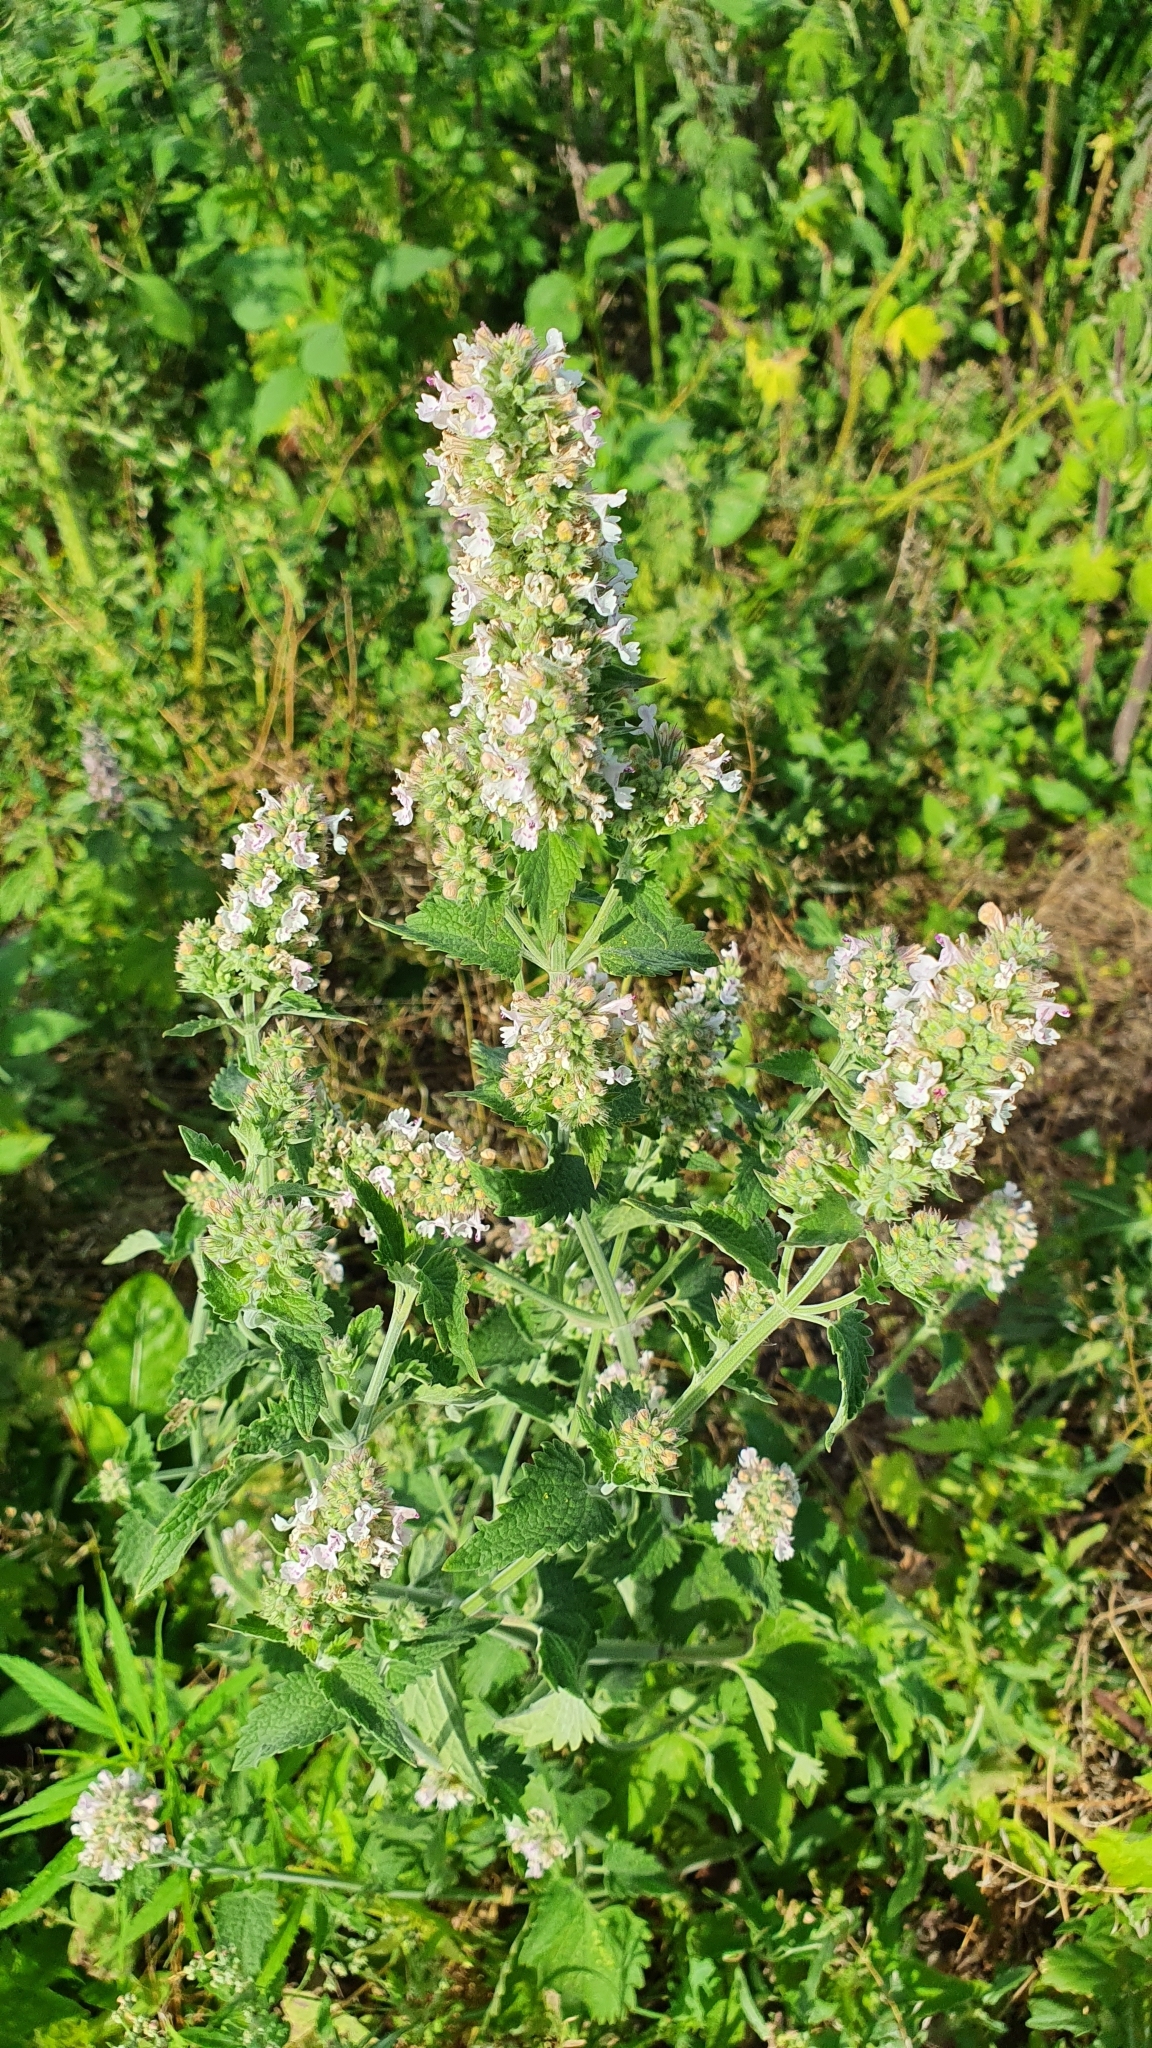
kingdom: Plantae
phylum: Tracheophyta
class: Magnoliopsida
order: Lamiales
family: Lamiaceae
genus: Nepeta
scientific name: Nepeta cataria
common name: Catnip
